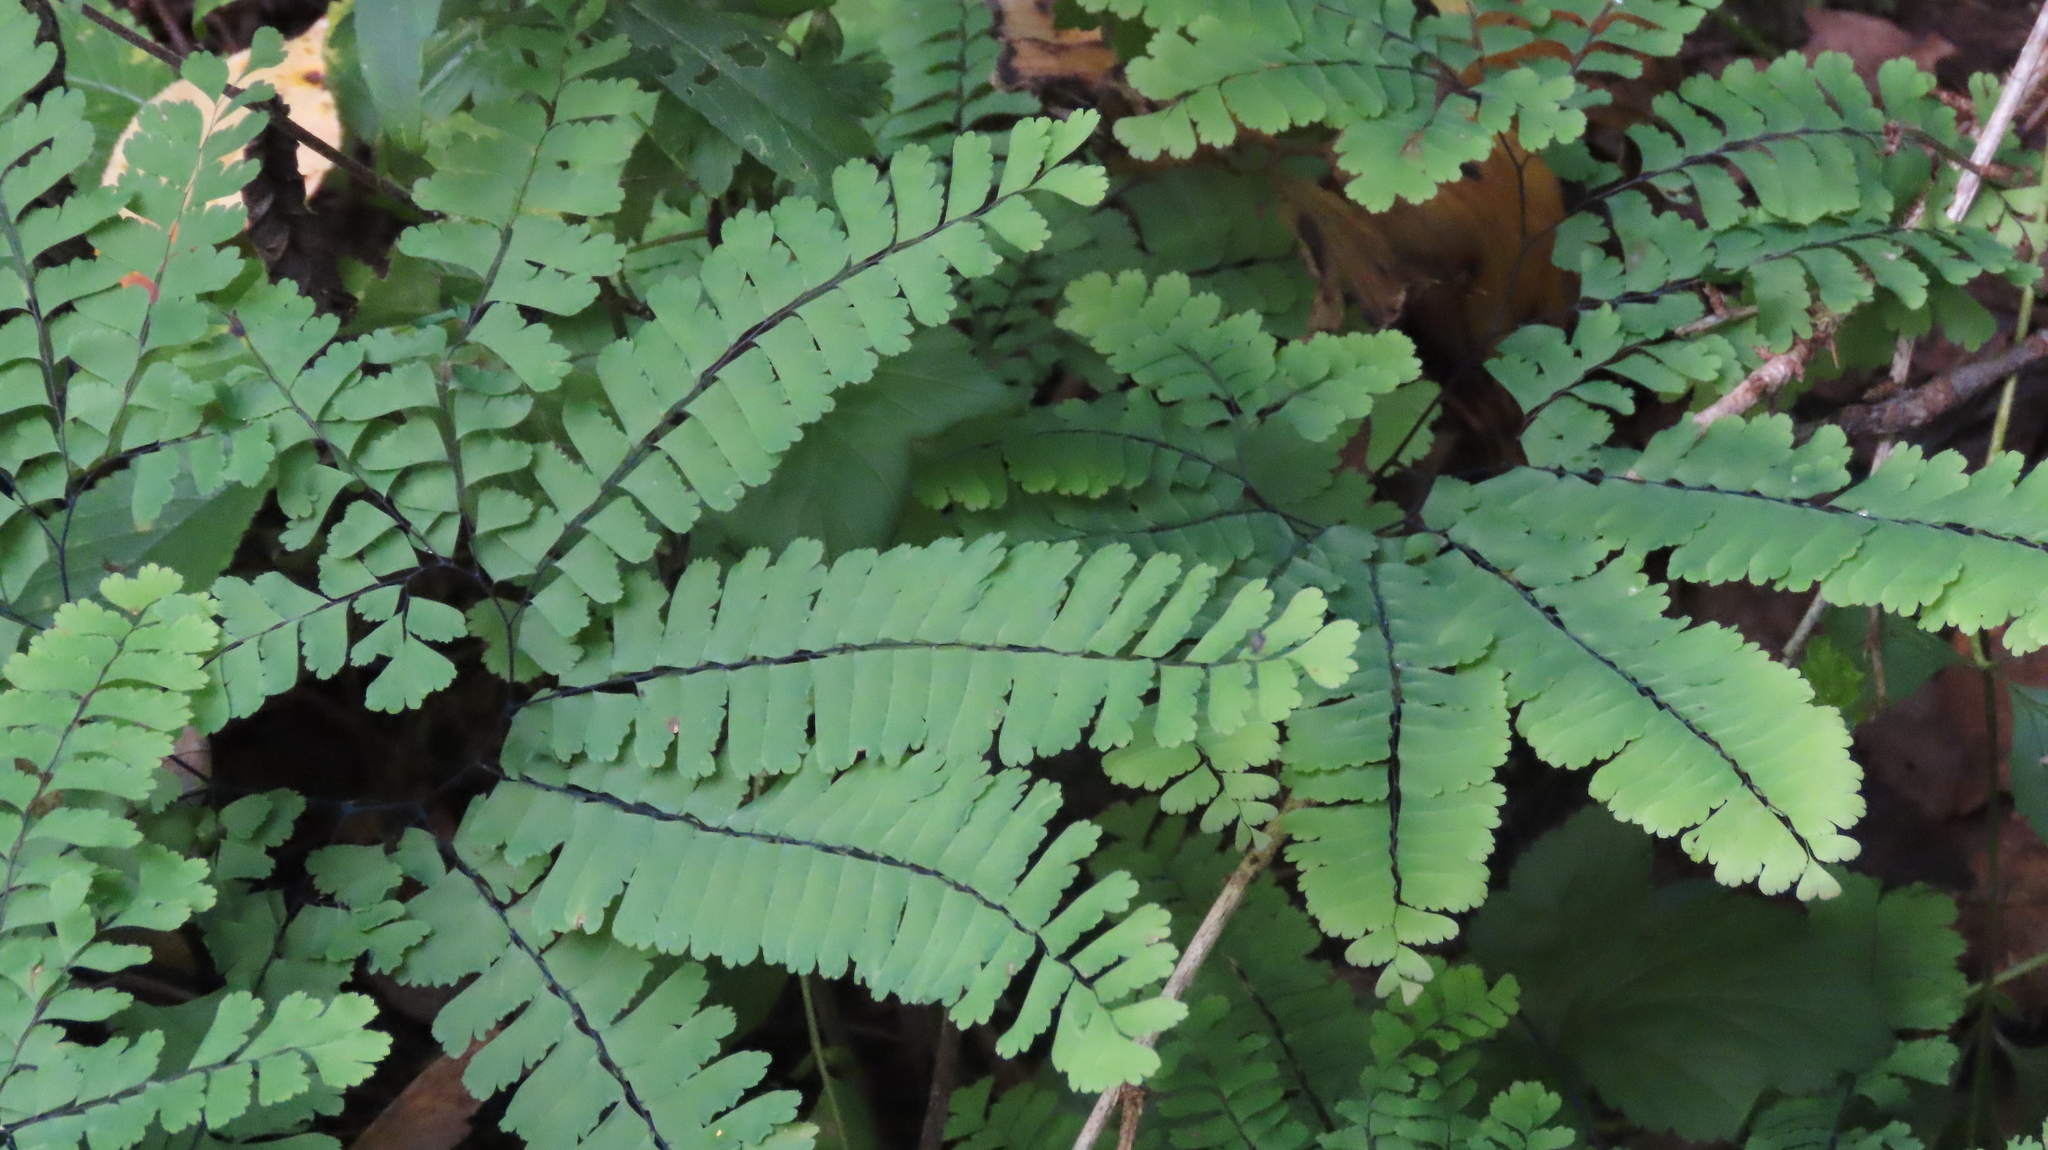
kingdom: Plantae
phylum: Tracheophyta
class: Polypodiopsida
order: Polypodiales
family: Pteridaceae
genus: Adiantum
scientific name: Adiantum pedatum
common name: Five-finger fern
